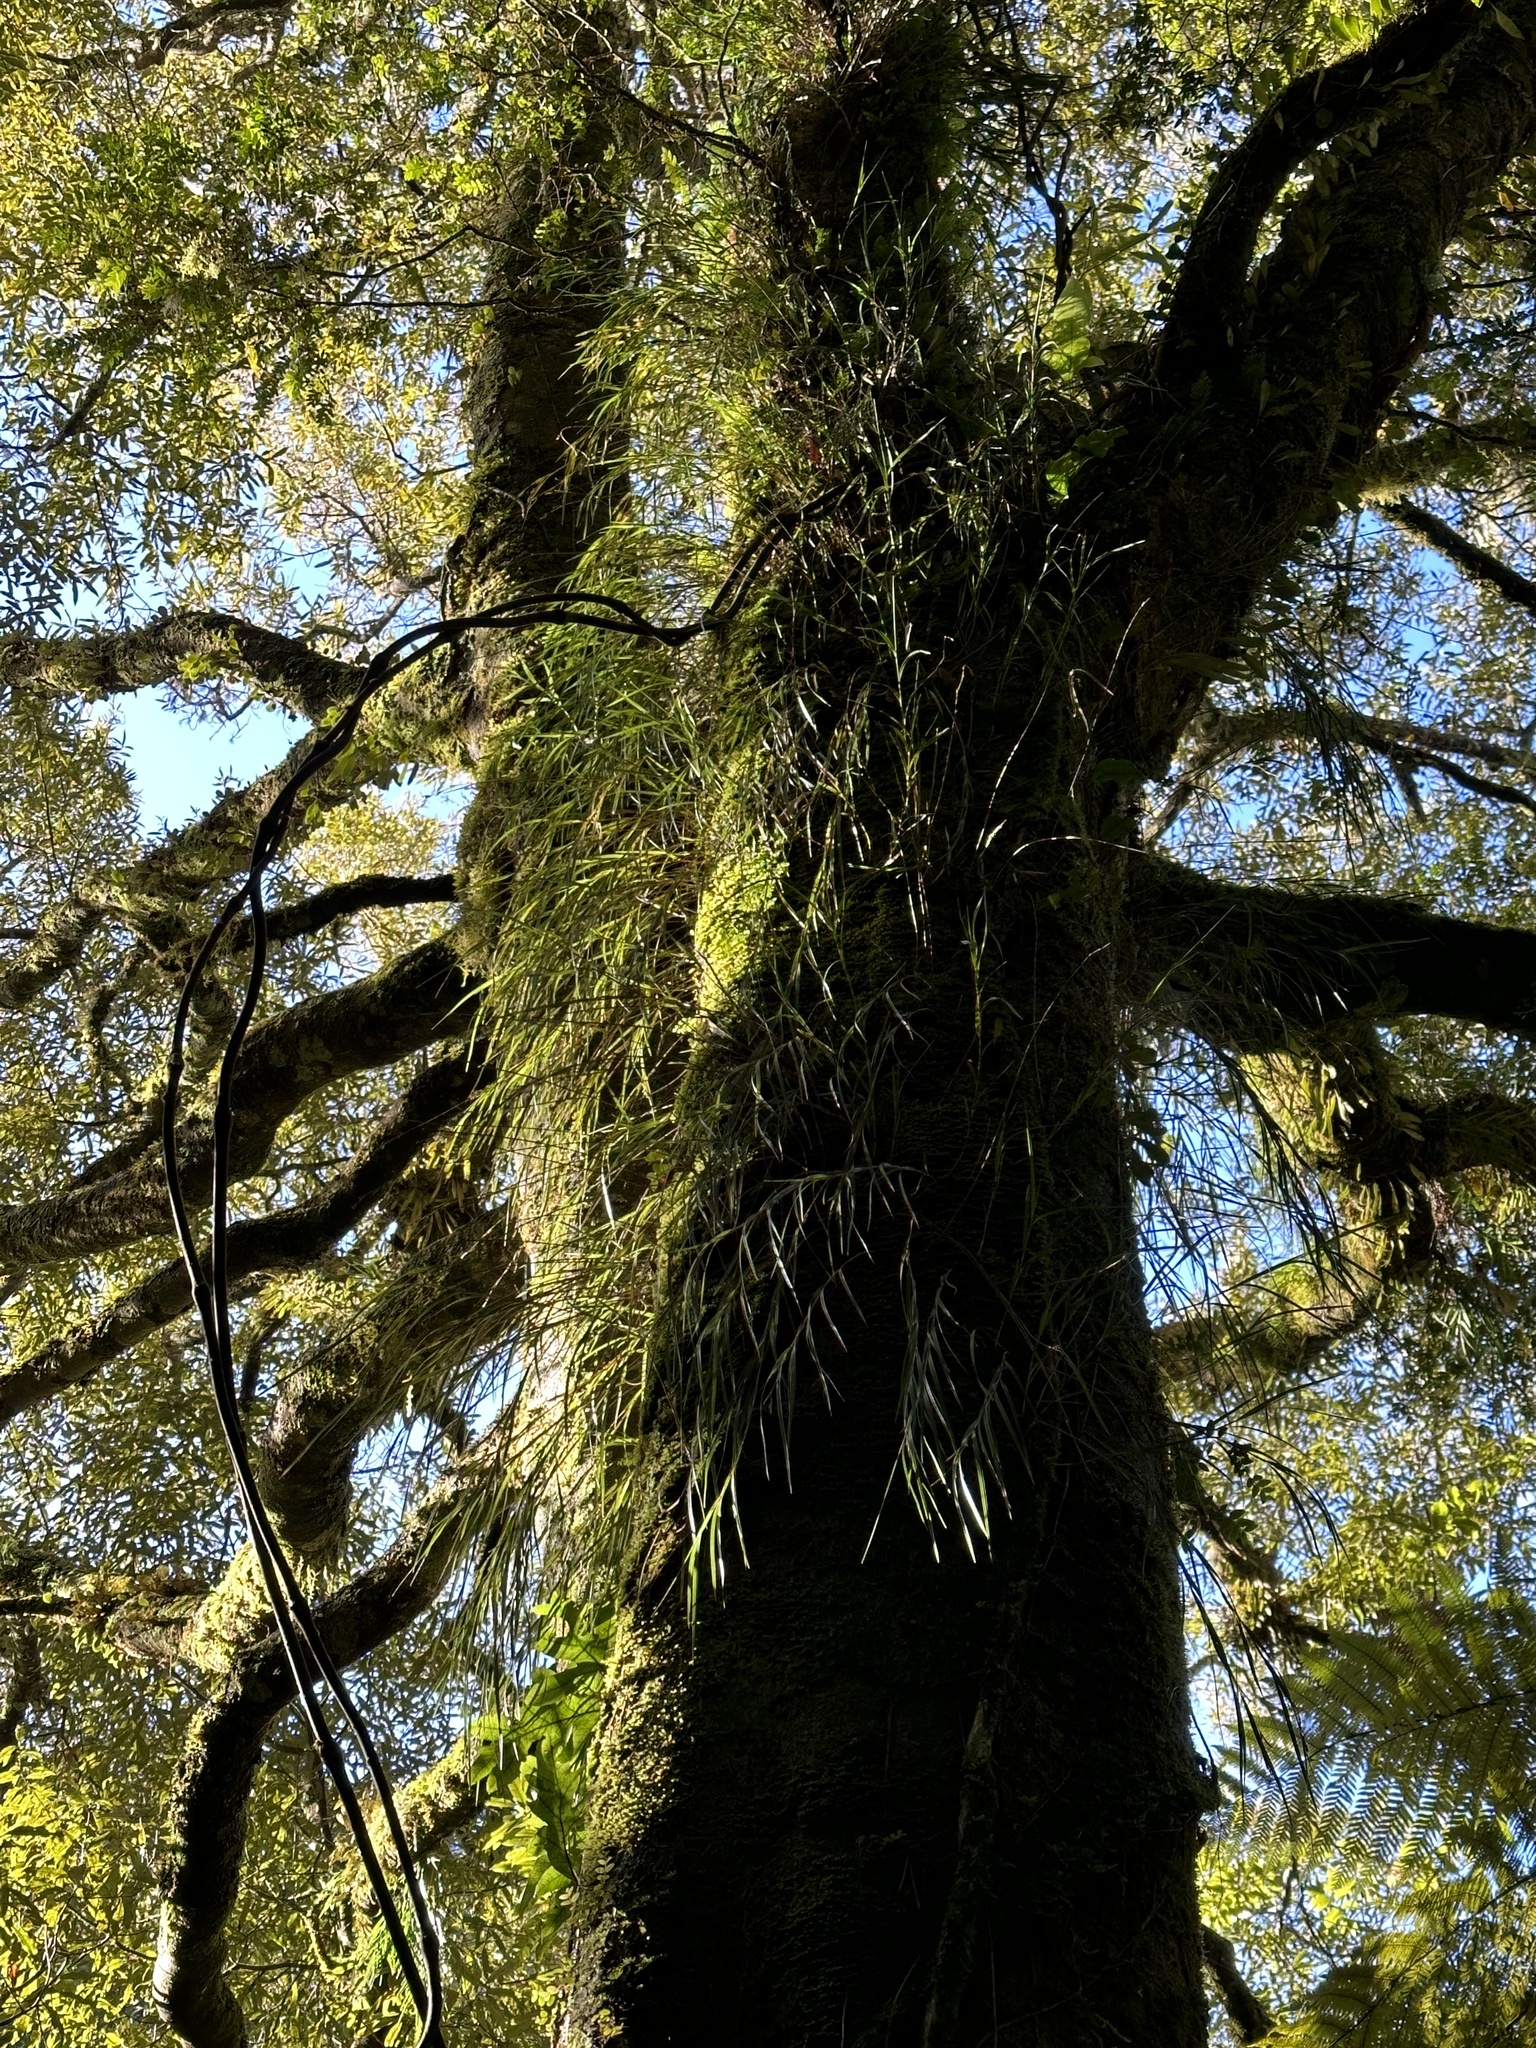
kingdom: Plantae
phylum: Tracheophyta
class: Liliopsida
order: Asparagales
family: Orchidaceae
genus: Earina
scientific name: Earina mucronata
